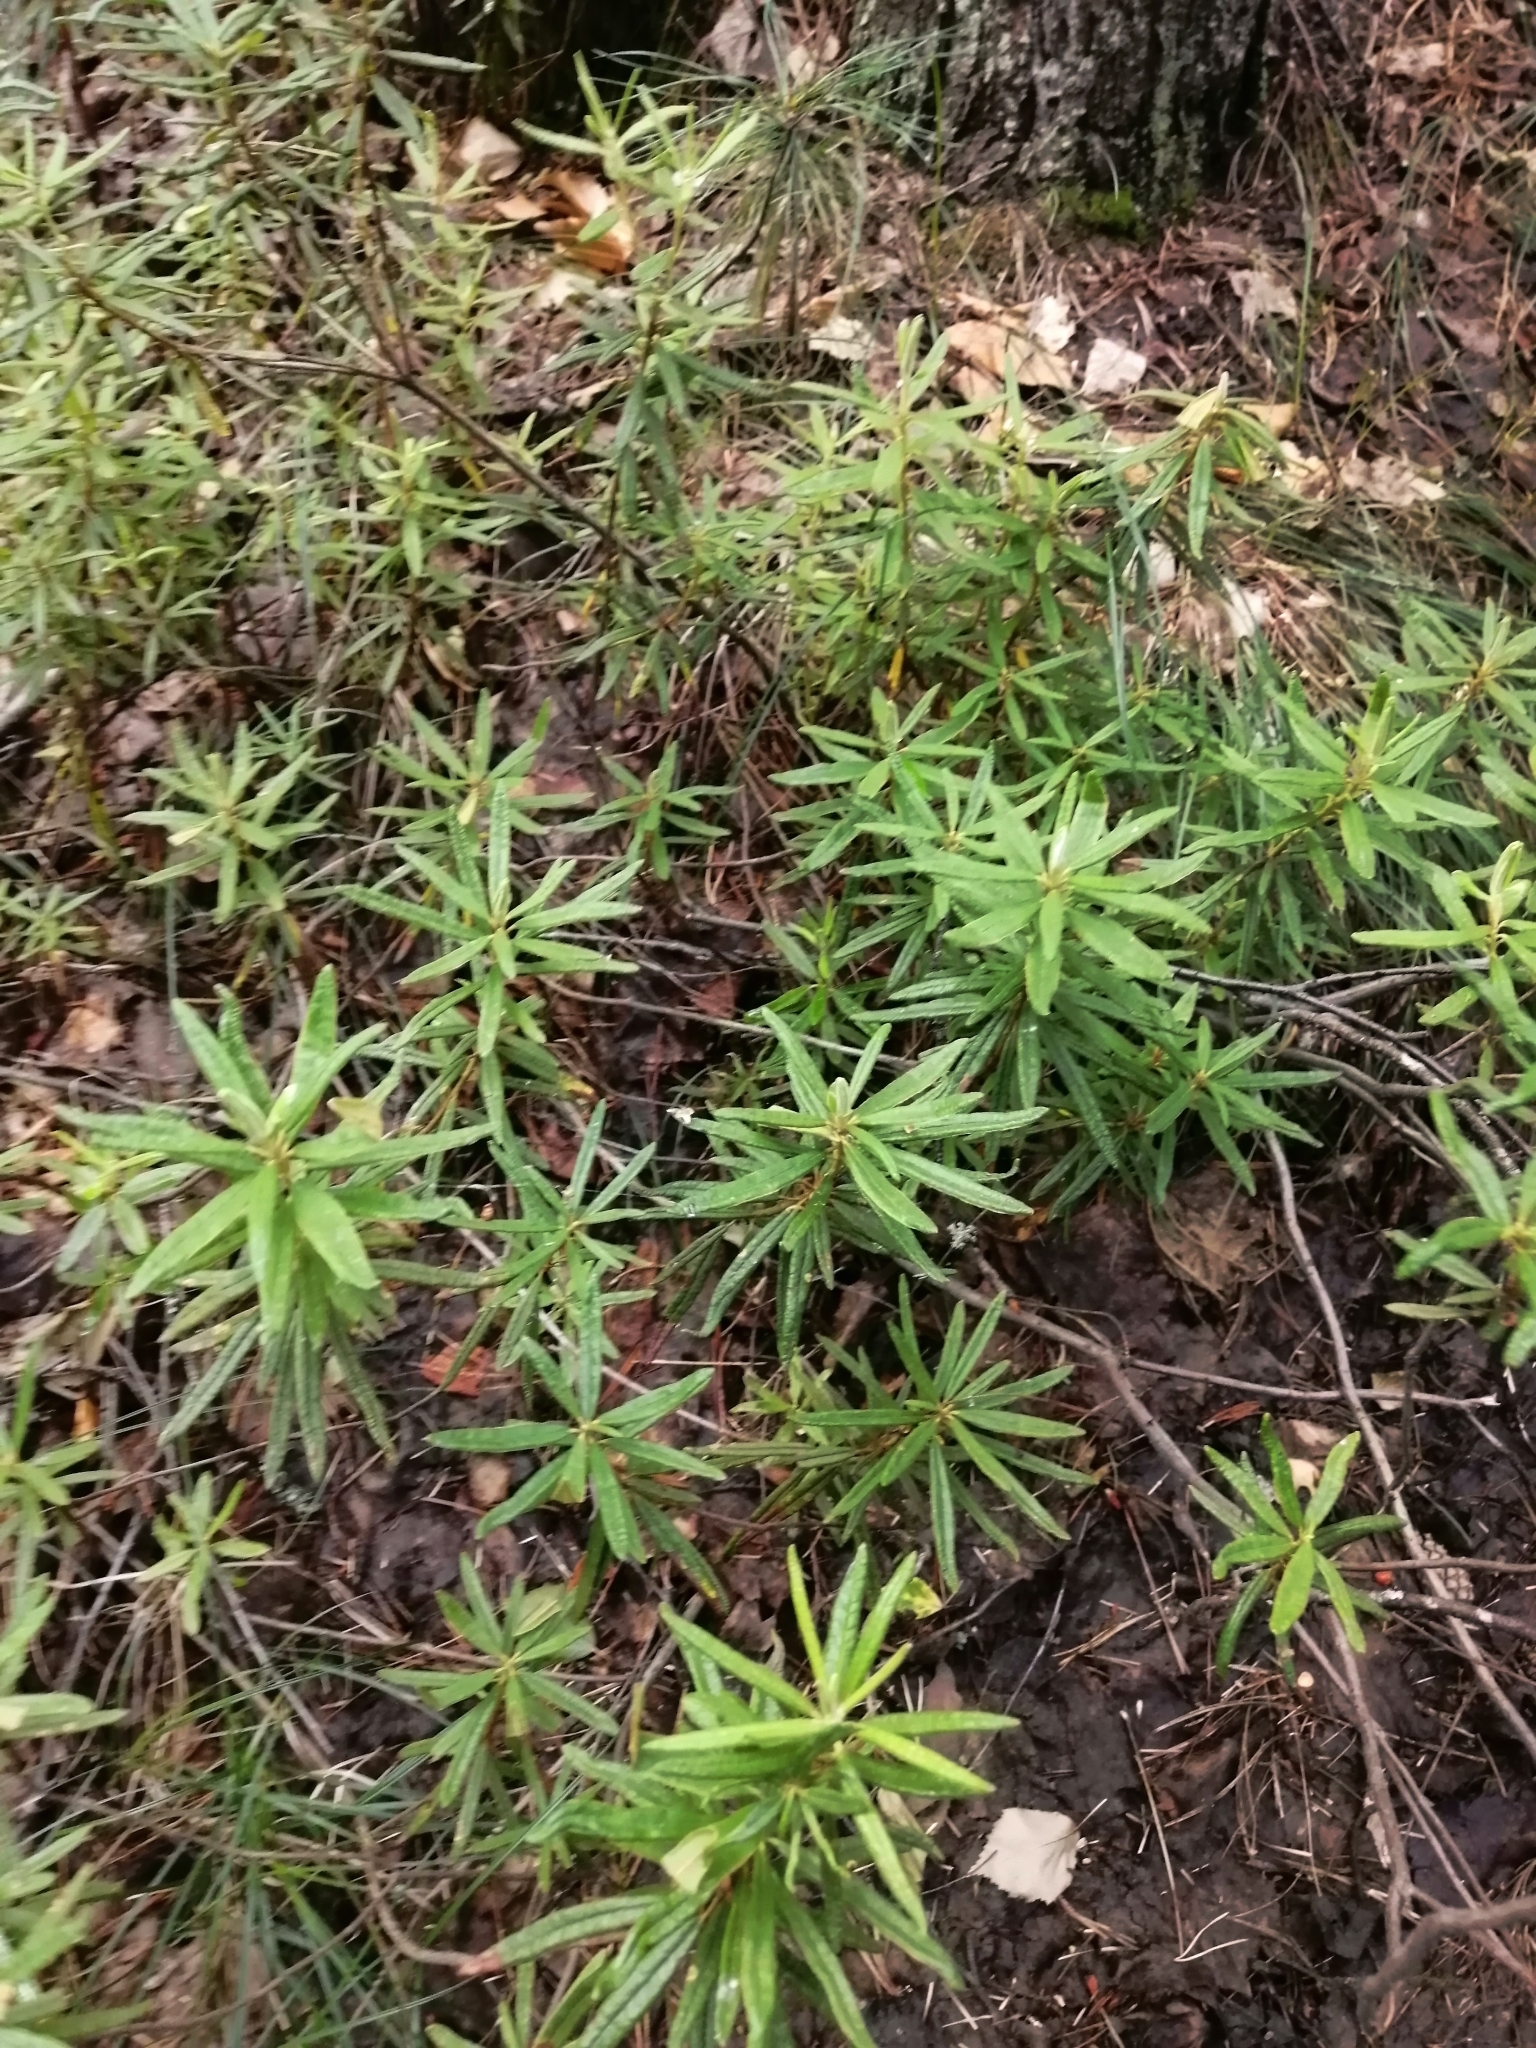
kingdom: Plantae
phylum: Tracheophyta
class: Magnoliopsida
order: Ericales
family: Ericaceae
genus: Rhododendron
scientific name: Rhododendron tomentosum
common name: Marsh labrador tea
